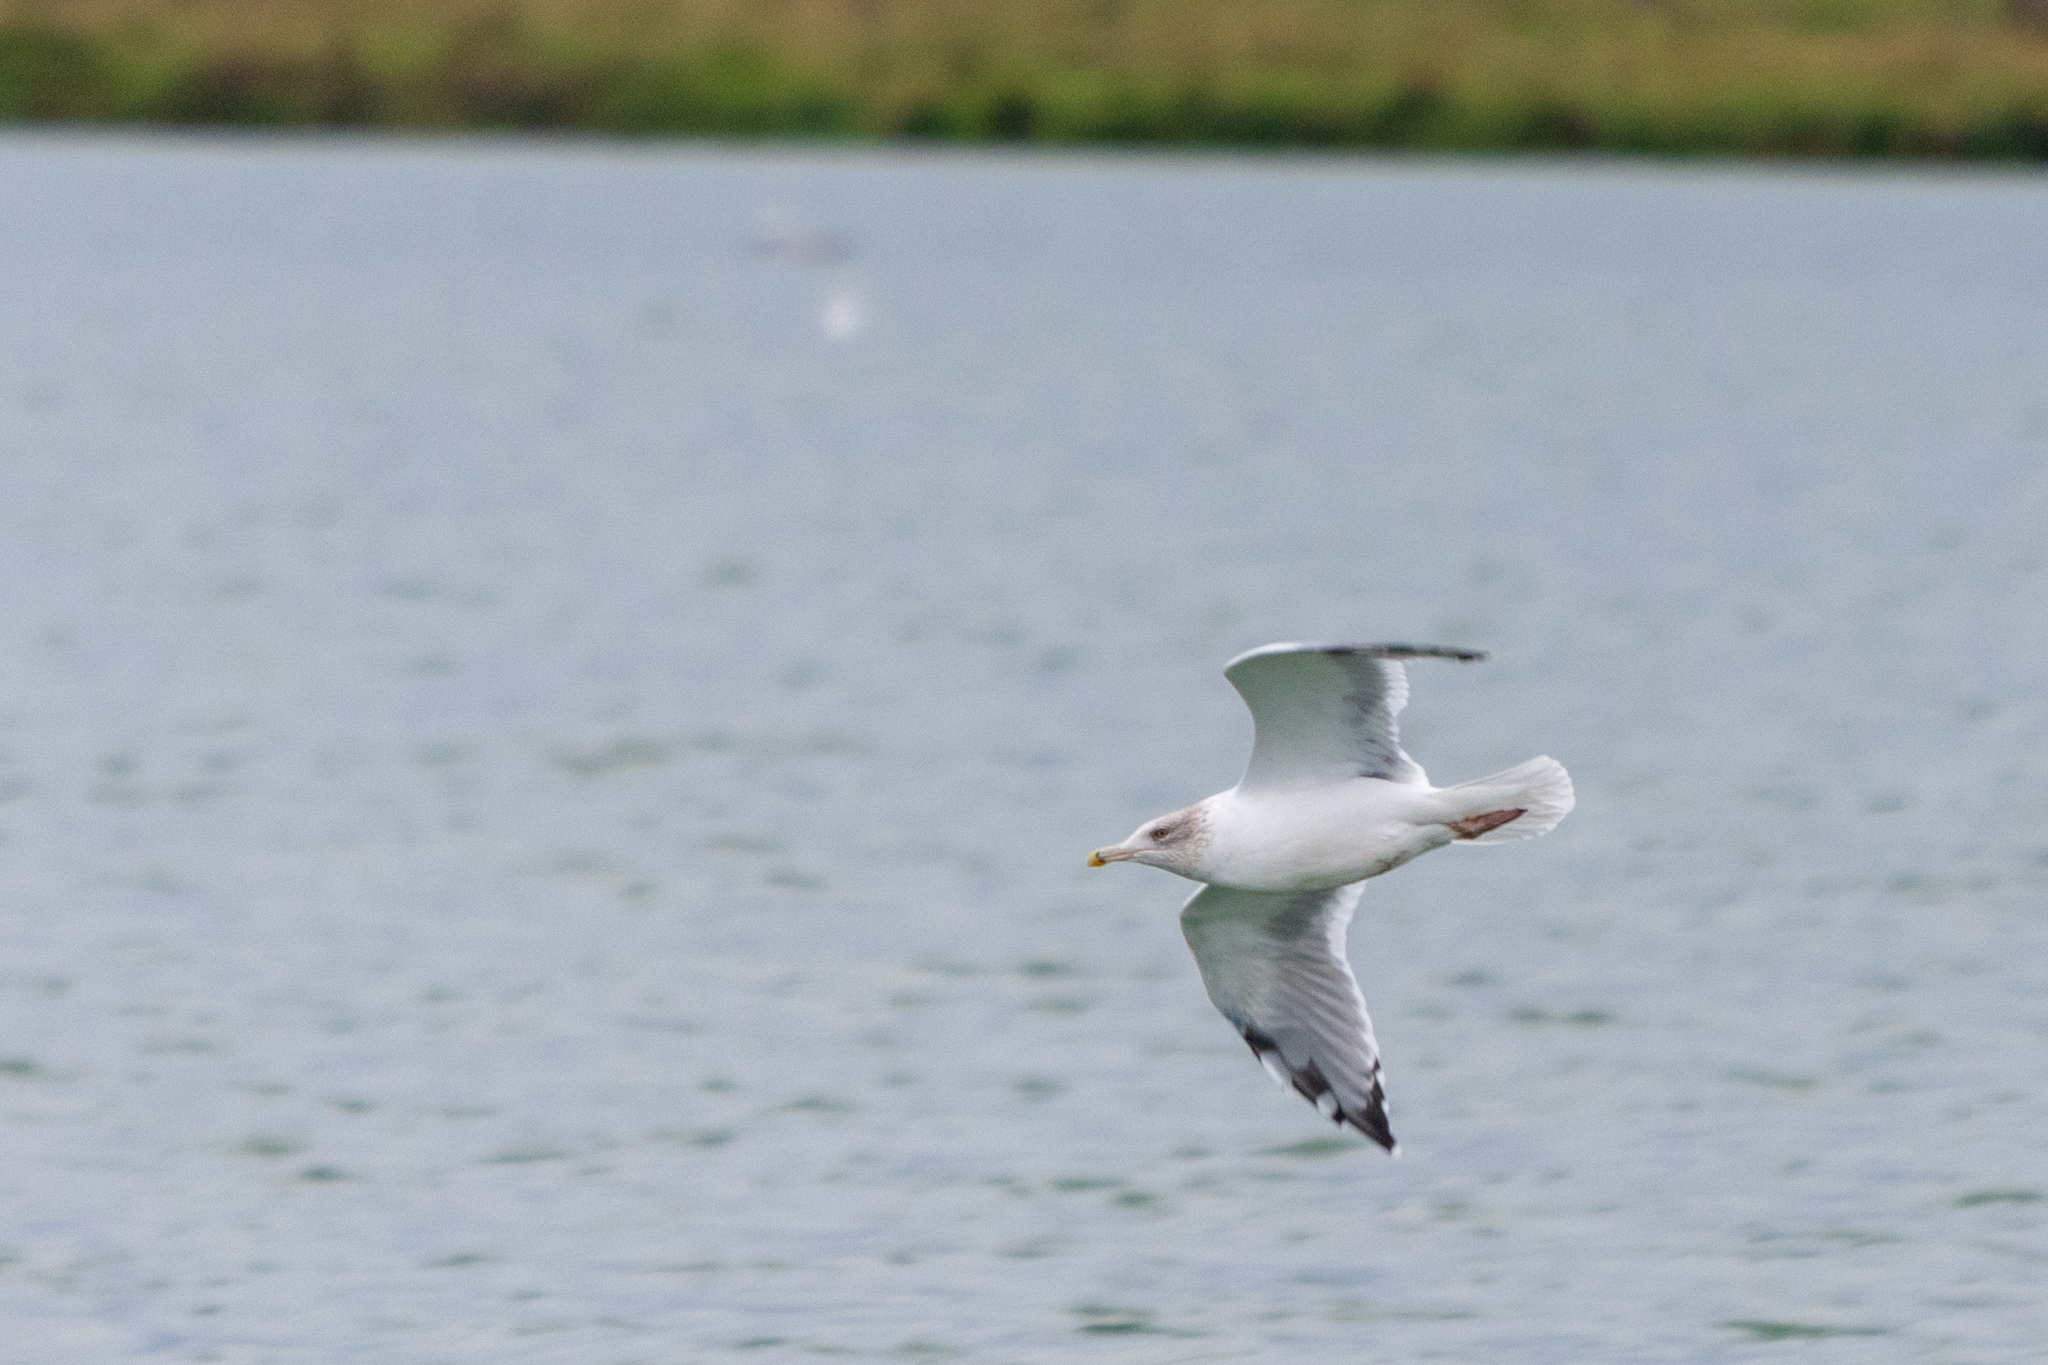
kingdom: Animalia
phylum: Chordata
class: Aves
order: Charadriiformes
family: Laridae
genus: Larus
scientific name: Larus argentatus
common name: Herring gull
